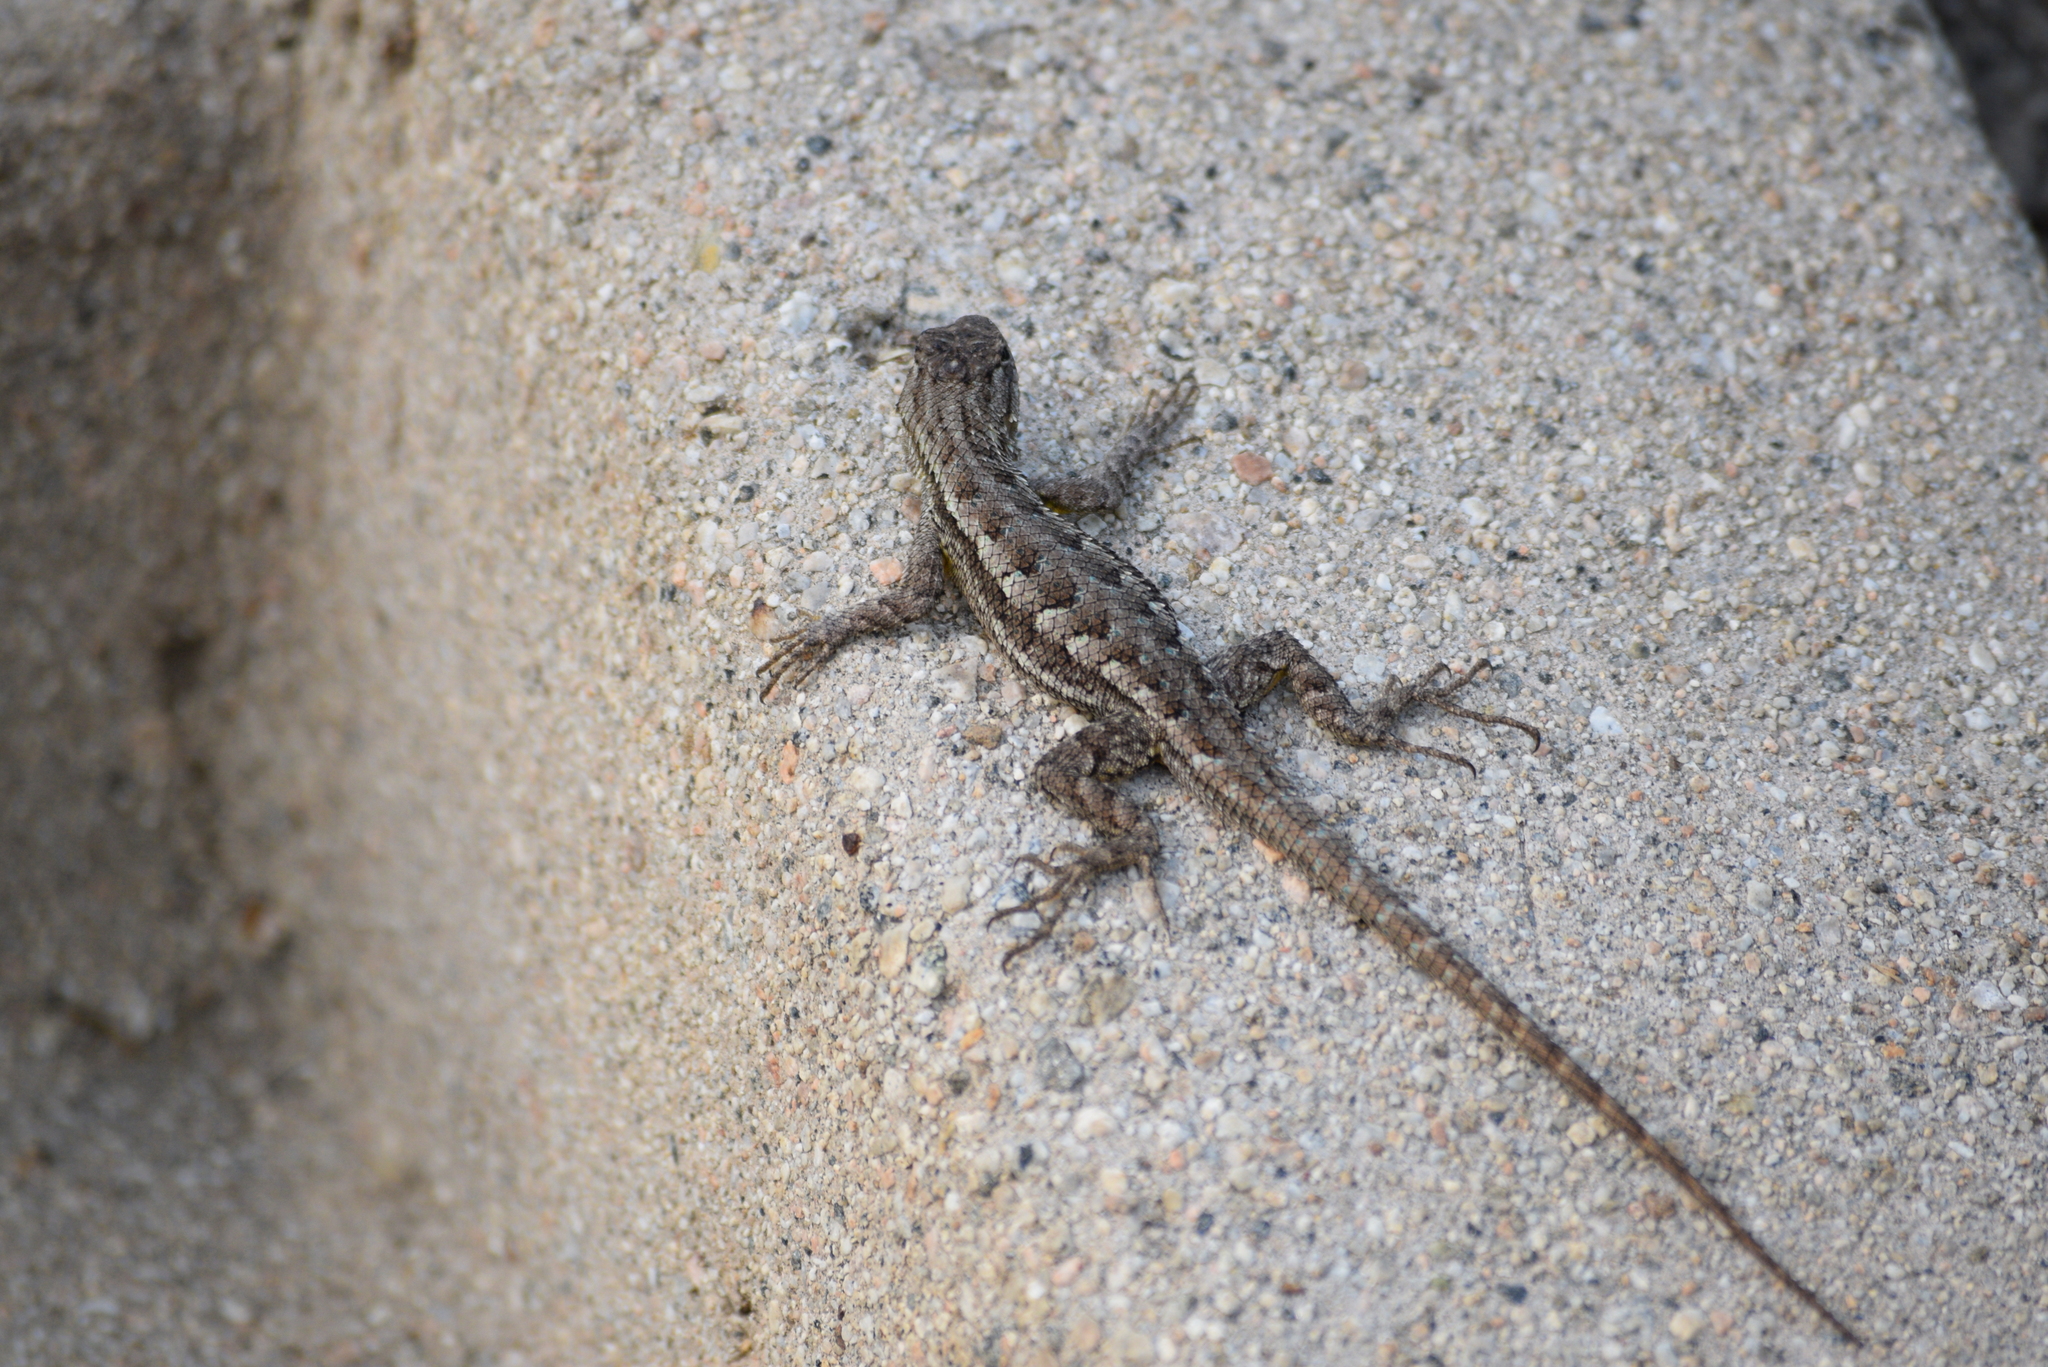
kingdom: Animalia
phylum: Chordata
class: Squamata
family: Phrynosomatidae
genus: Sceloporus
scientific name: Sceloporus occidentalis
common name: Western fence lizard
